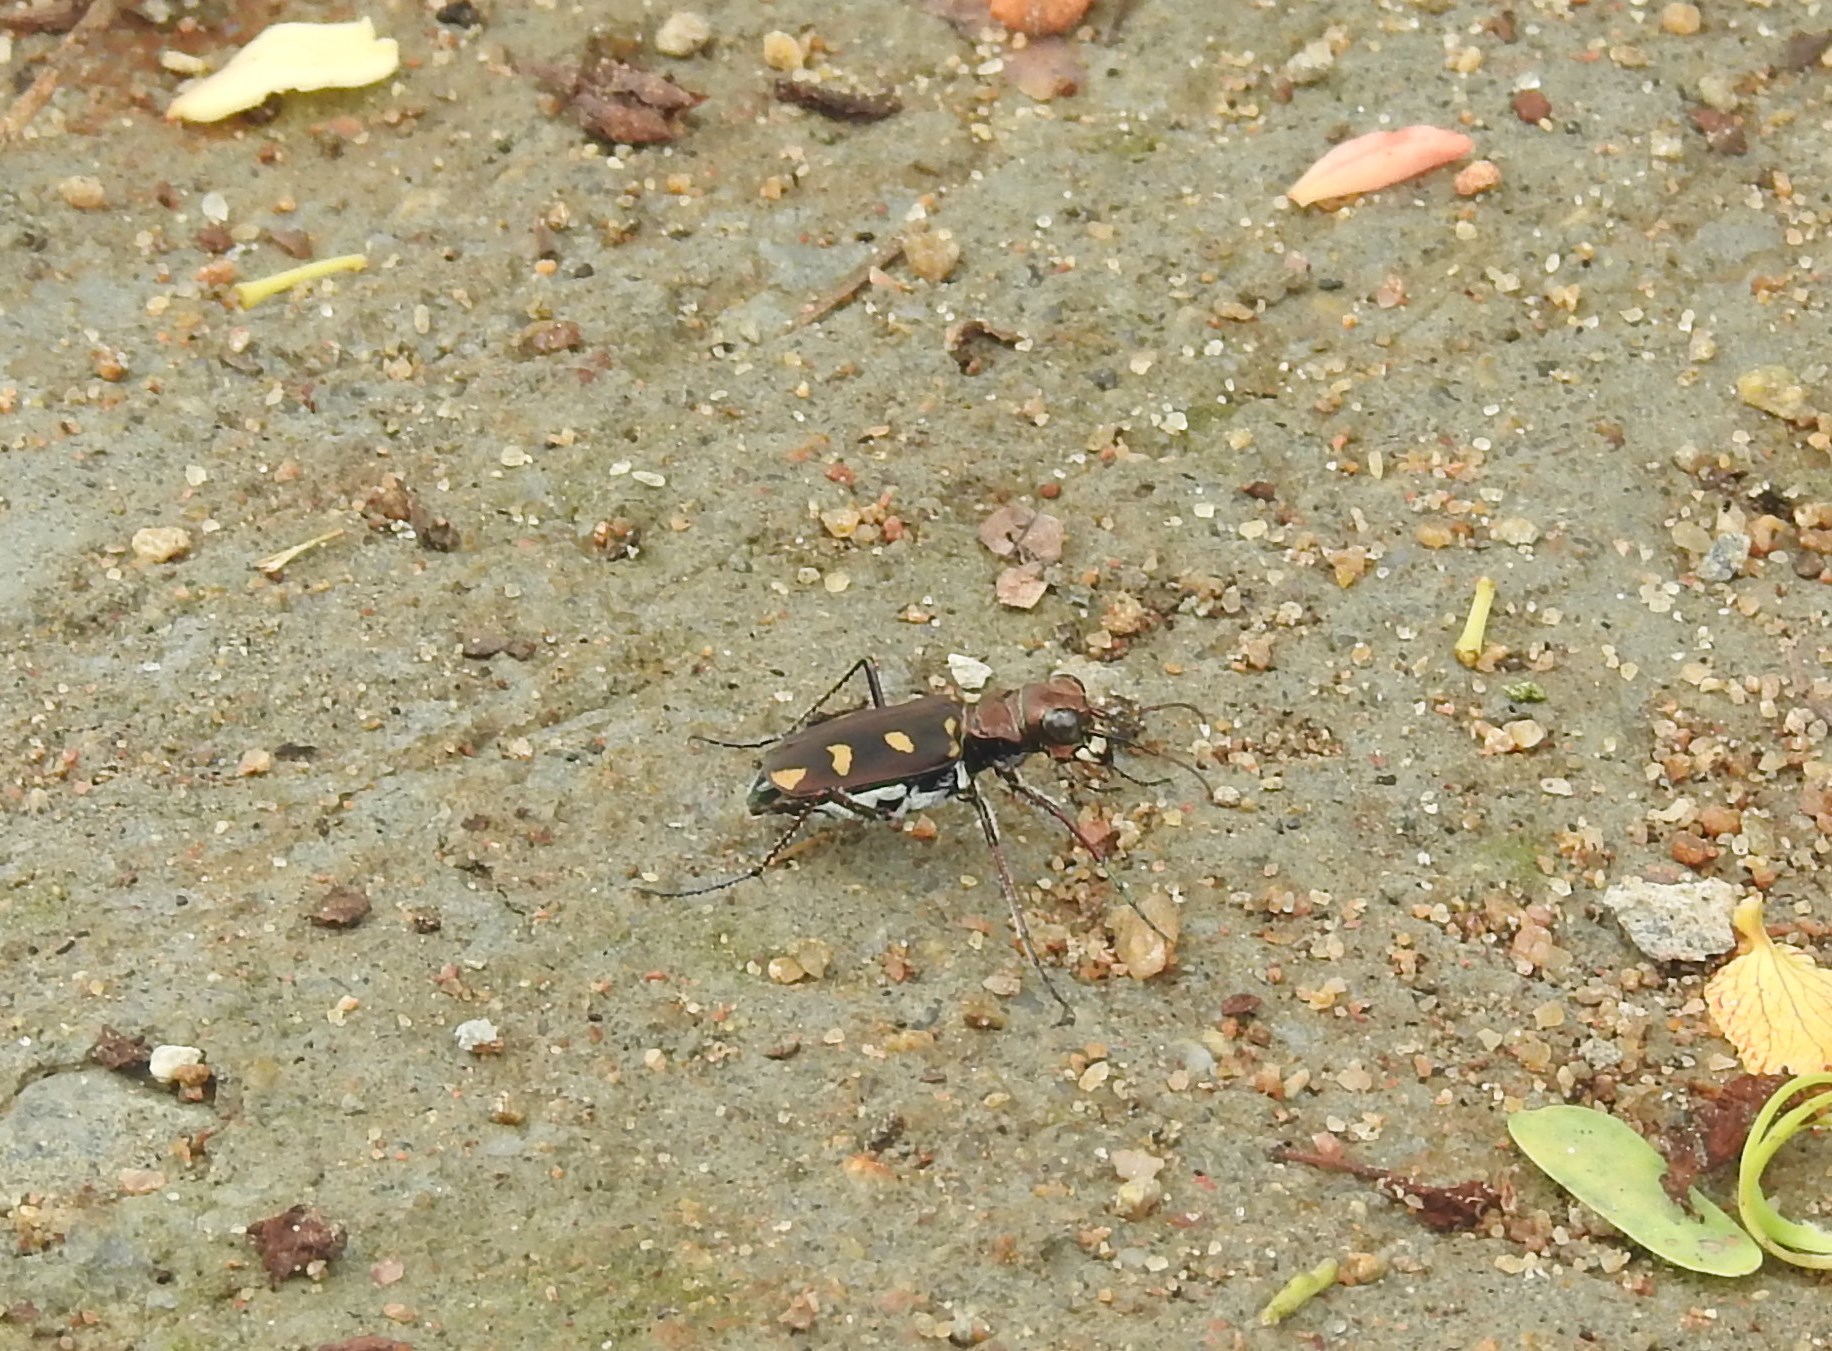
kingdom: Animalia
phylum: Arthropoda
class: Insecta
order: Coleoptera
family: Carabidae
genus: Cicindela
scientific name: Cicindela calligramma
